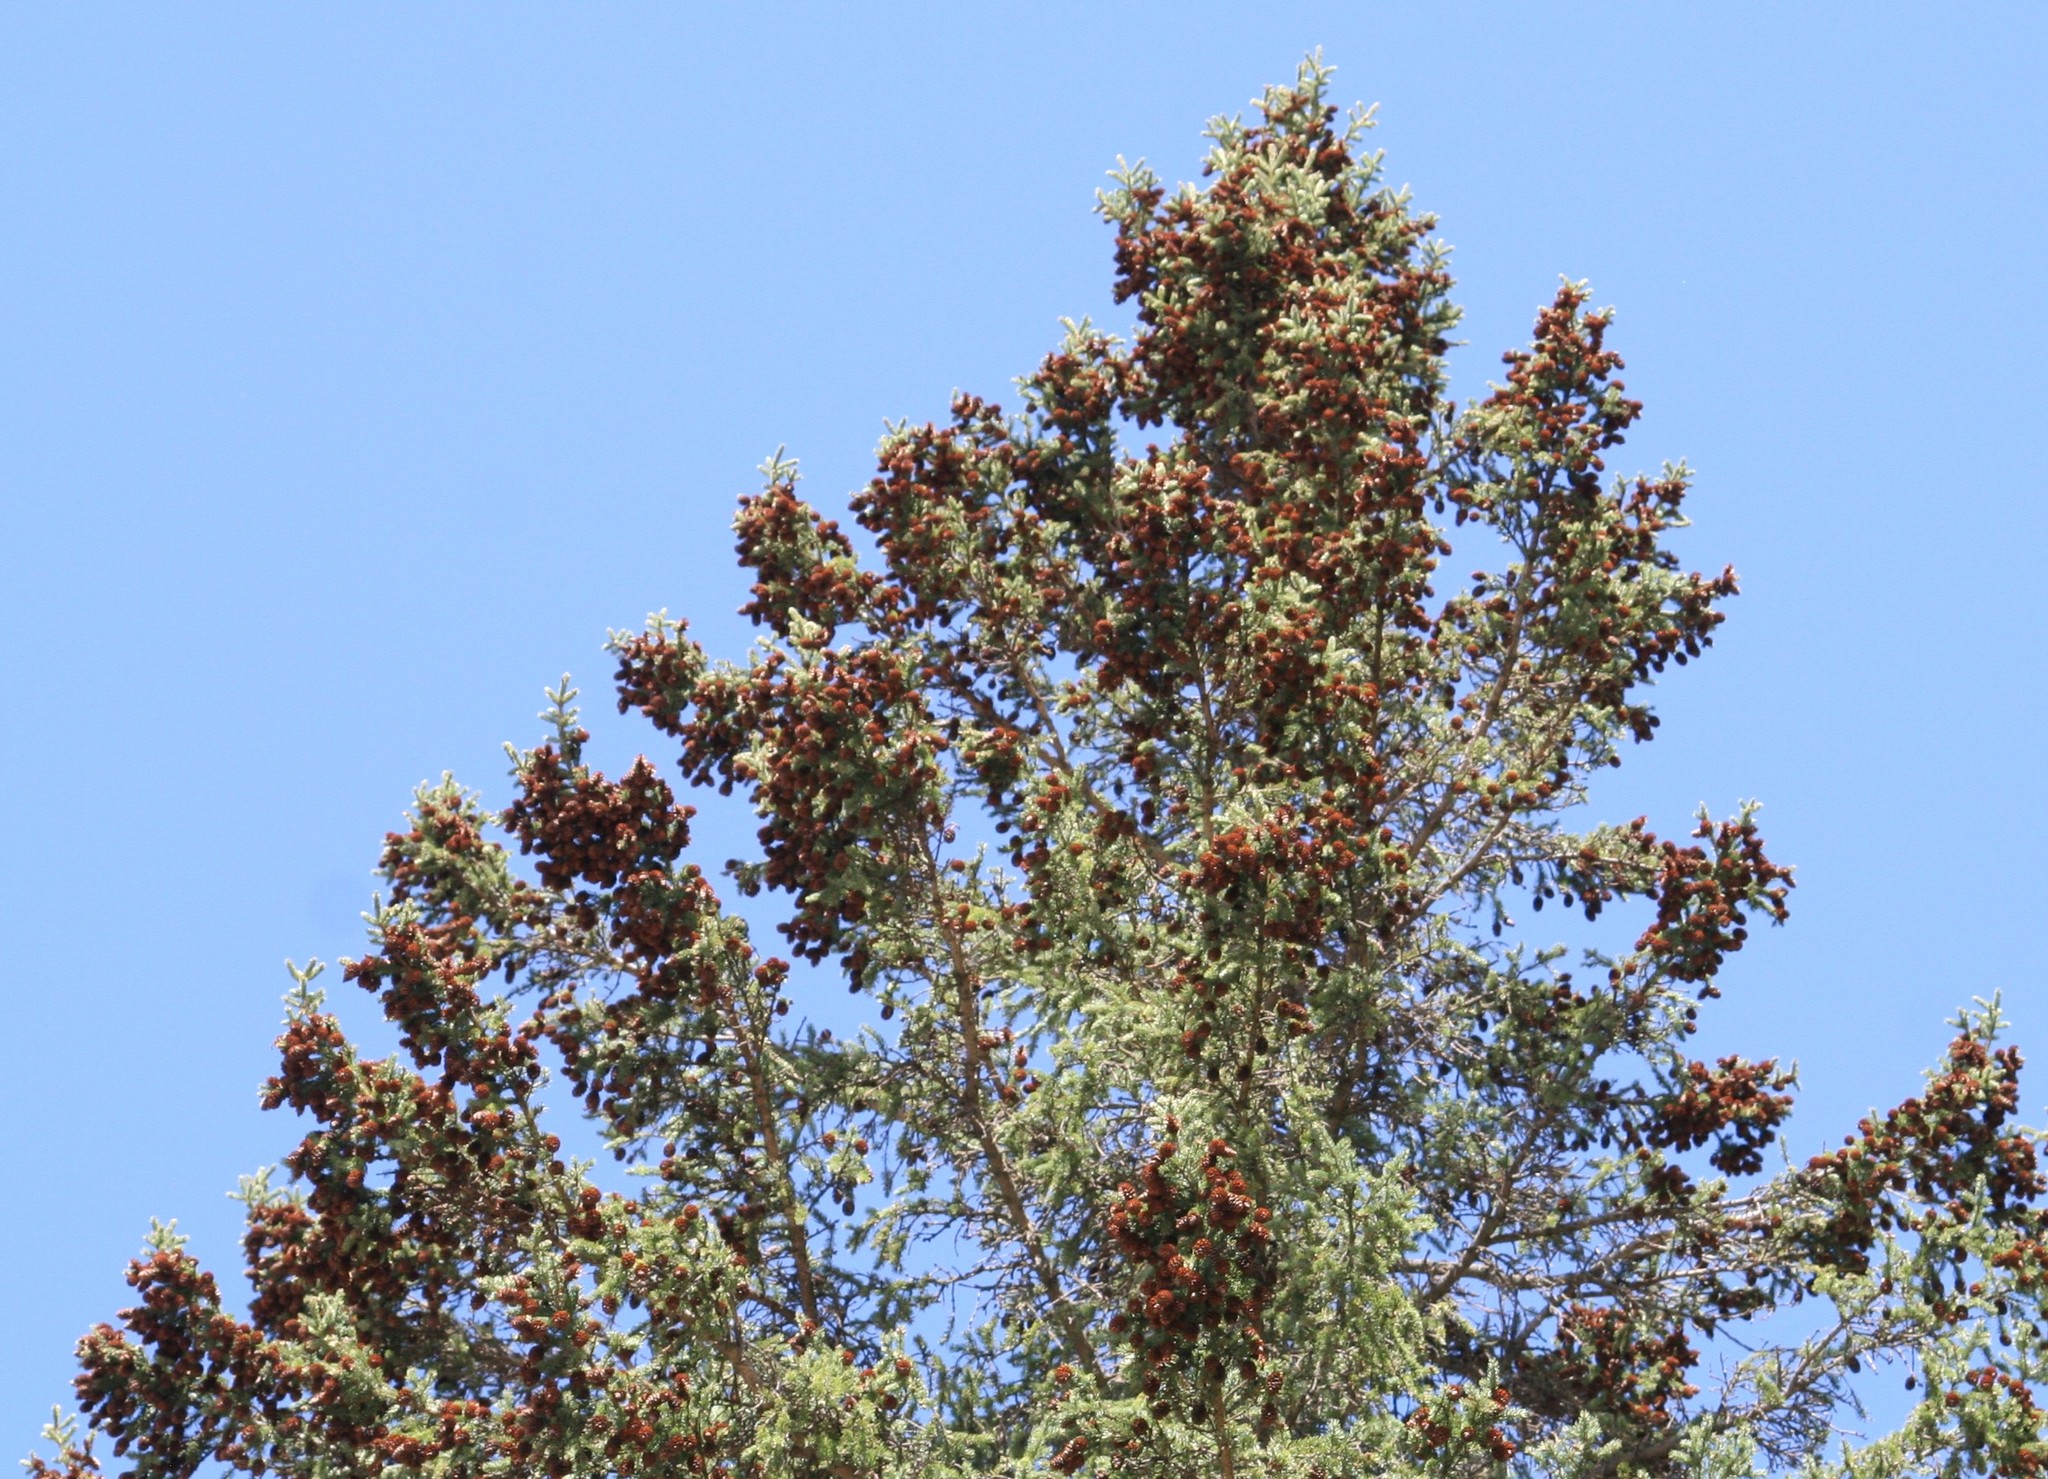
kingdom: Plantae
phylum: Tracheophyta
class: Pinopsida
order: Pinales
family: Pinaceae
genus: Picea
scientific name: Picea glauca
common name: White spruce
